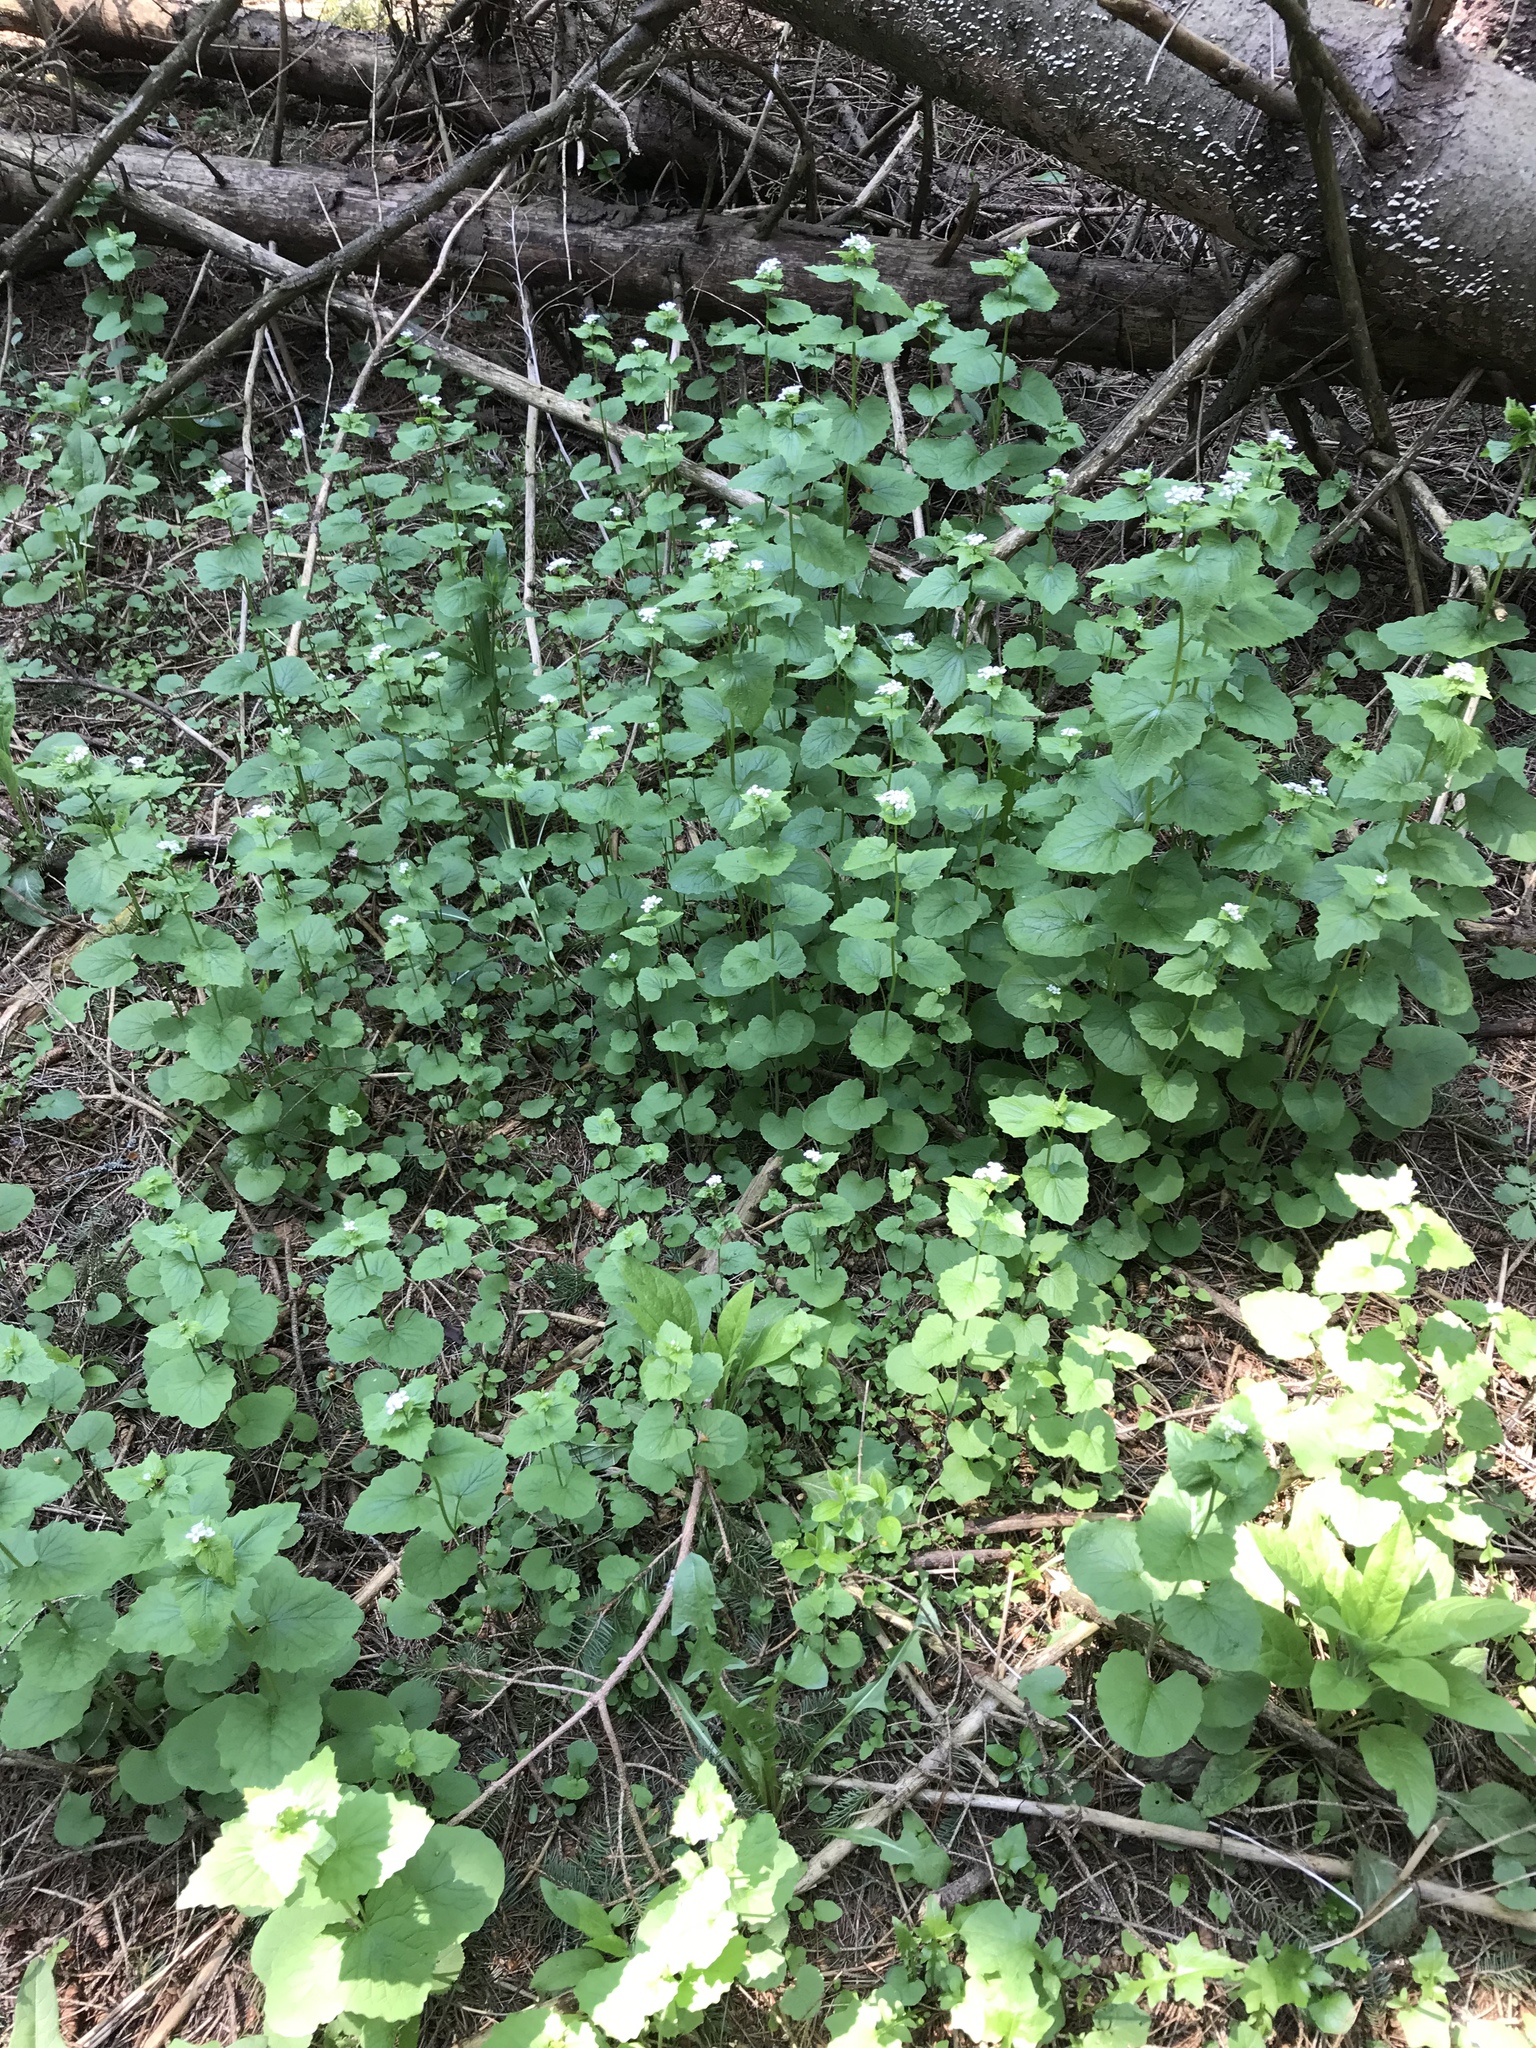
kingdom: Plantae
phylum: Tracheophyta
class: Magnoliopsida
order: Brassicales
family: Brassicaceae
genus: Alliaria
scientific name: Alliaria petiolata
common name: Garlic mustard
